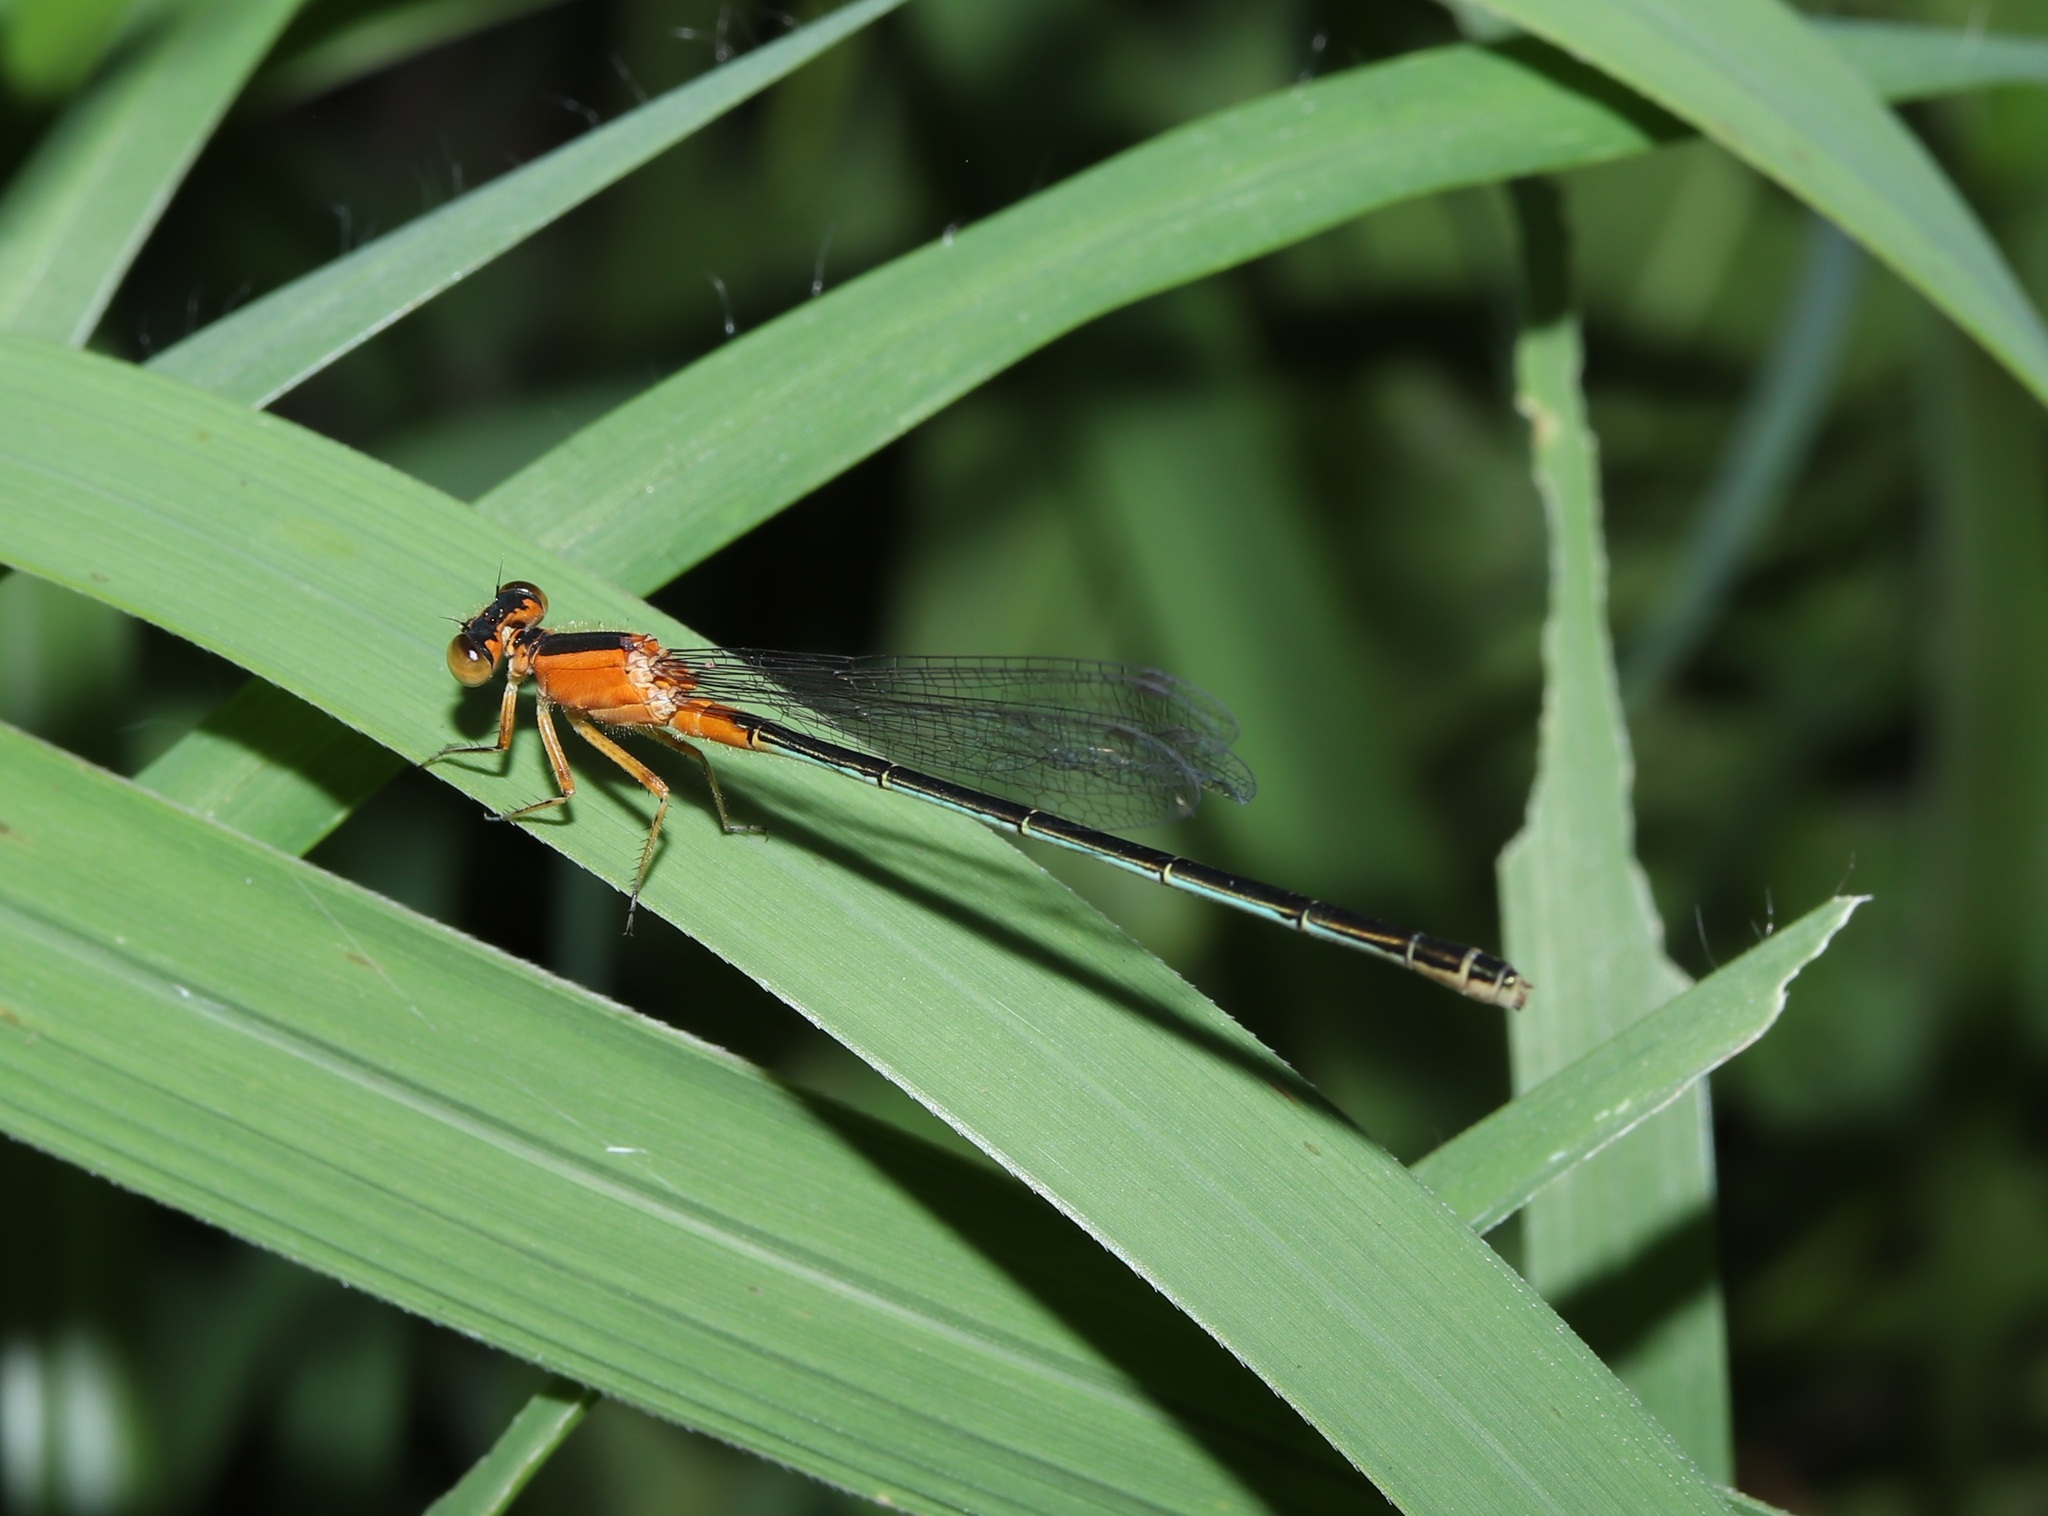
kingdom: Animalia
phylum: Arthropoda
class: Insecta
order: Odonata
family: Coenagrionidae
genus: Ischnura
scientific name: Ischnura senegalensis
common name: Tropical bluetail
